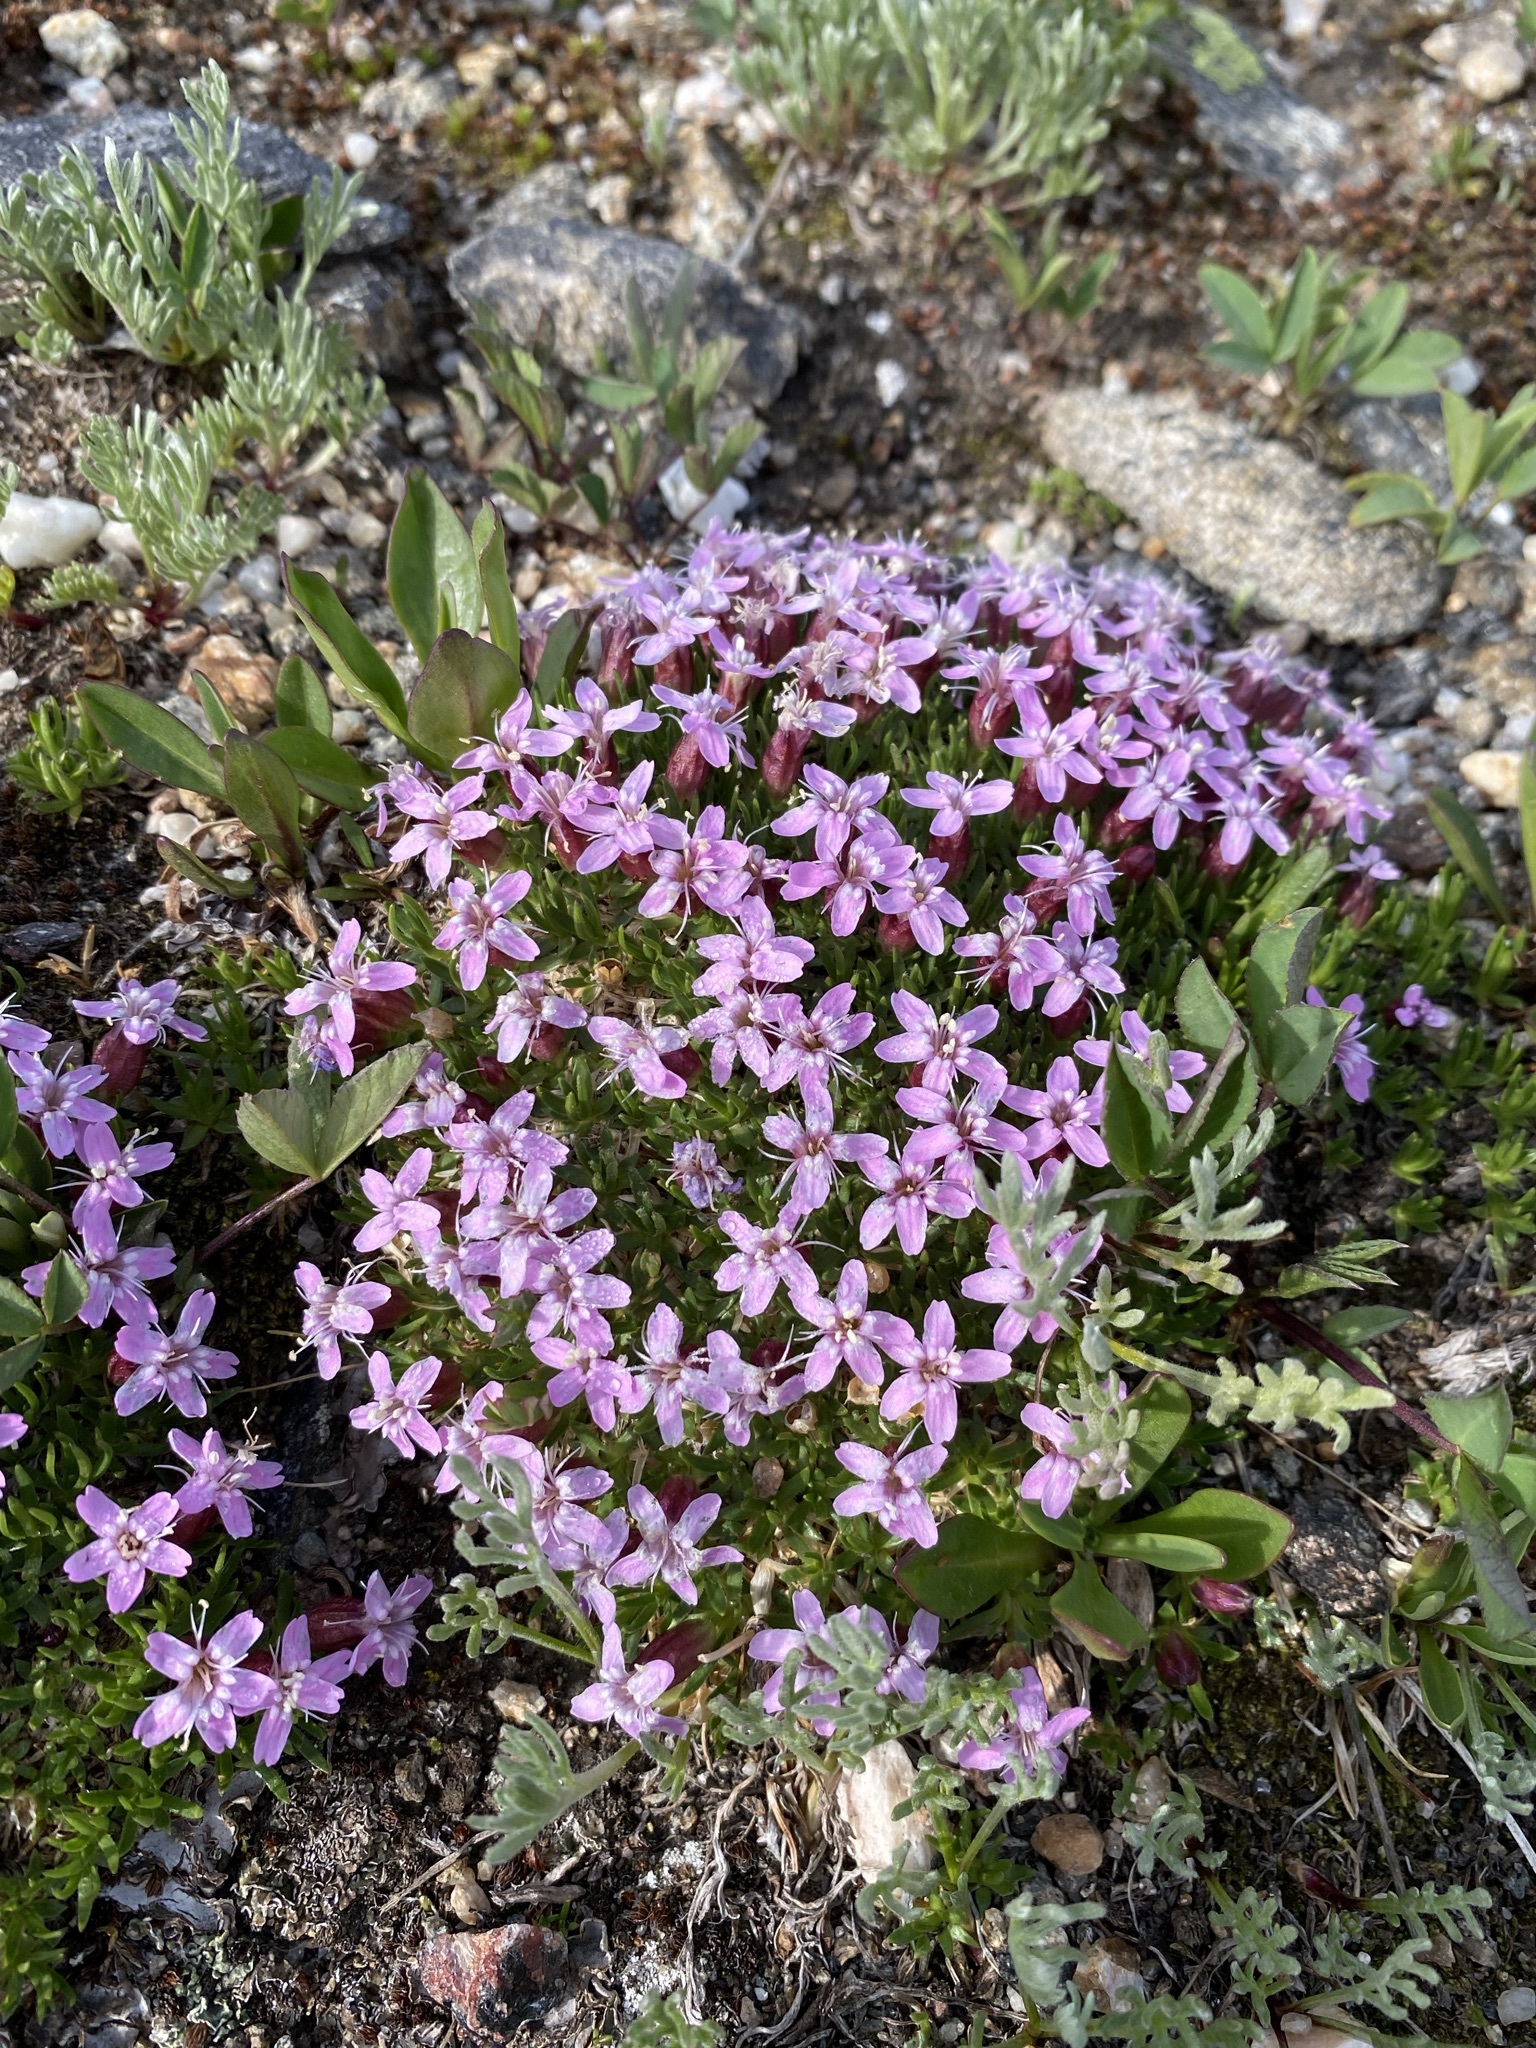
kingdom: Plantae
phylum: Tracheophyta
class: Magnoliopsida
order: Caryophyllales
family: Caryophyllaceae
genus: Silene
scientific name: Silene acaulis
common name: Moss campion
